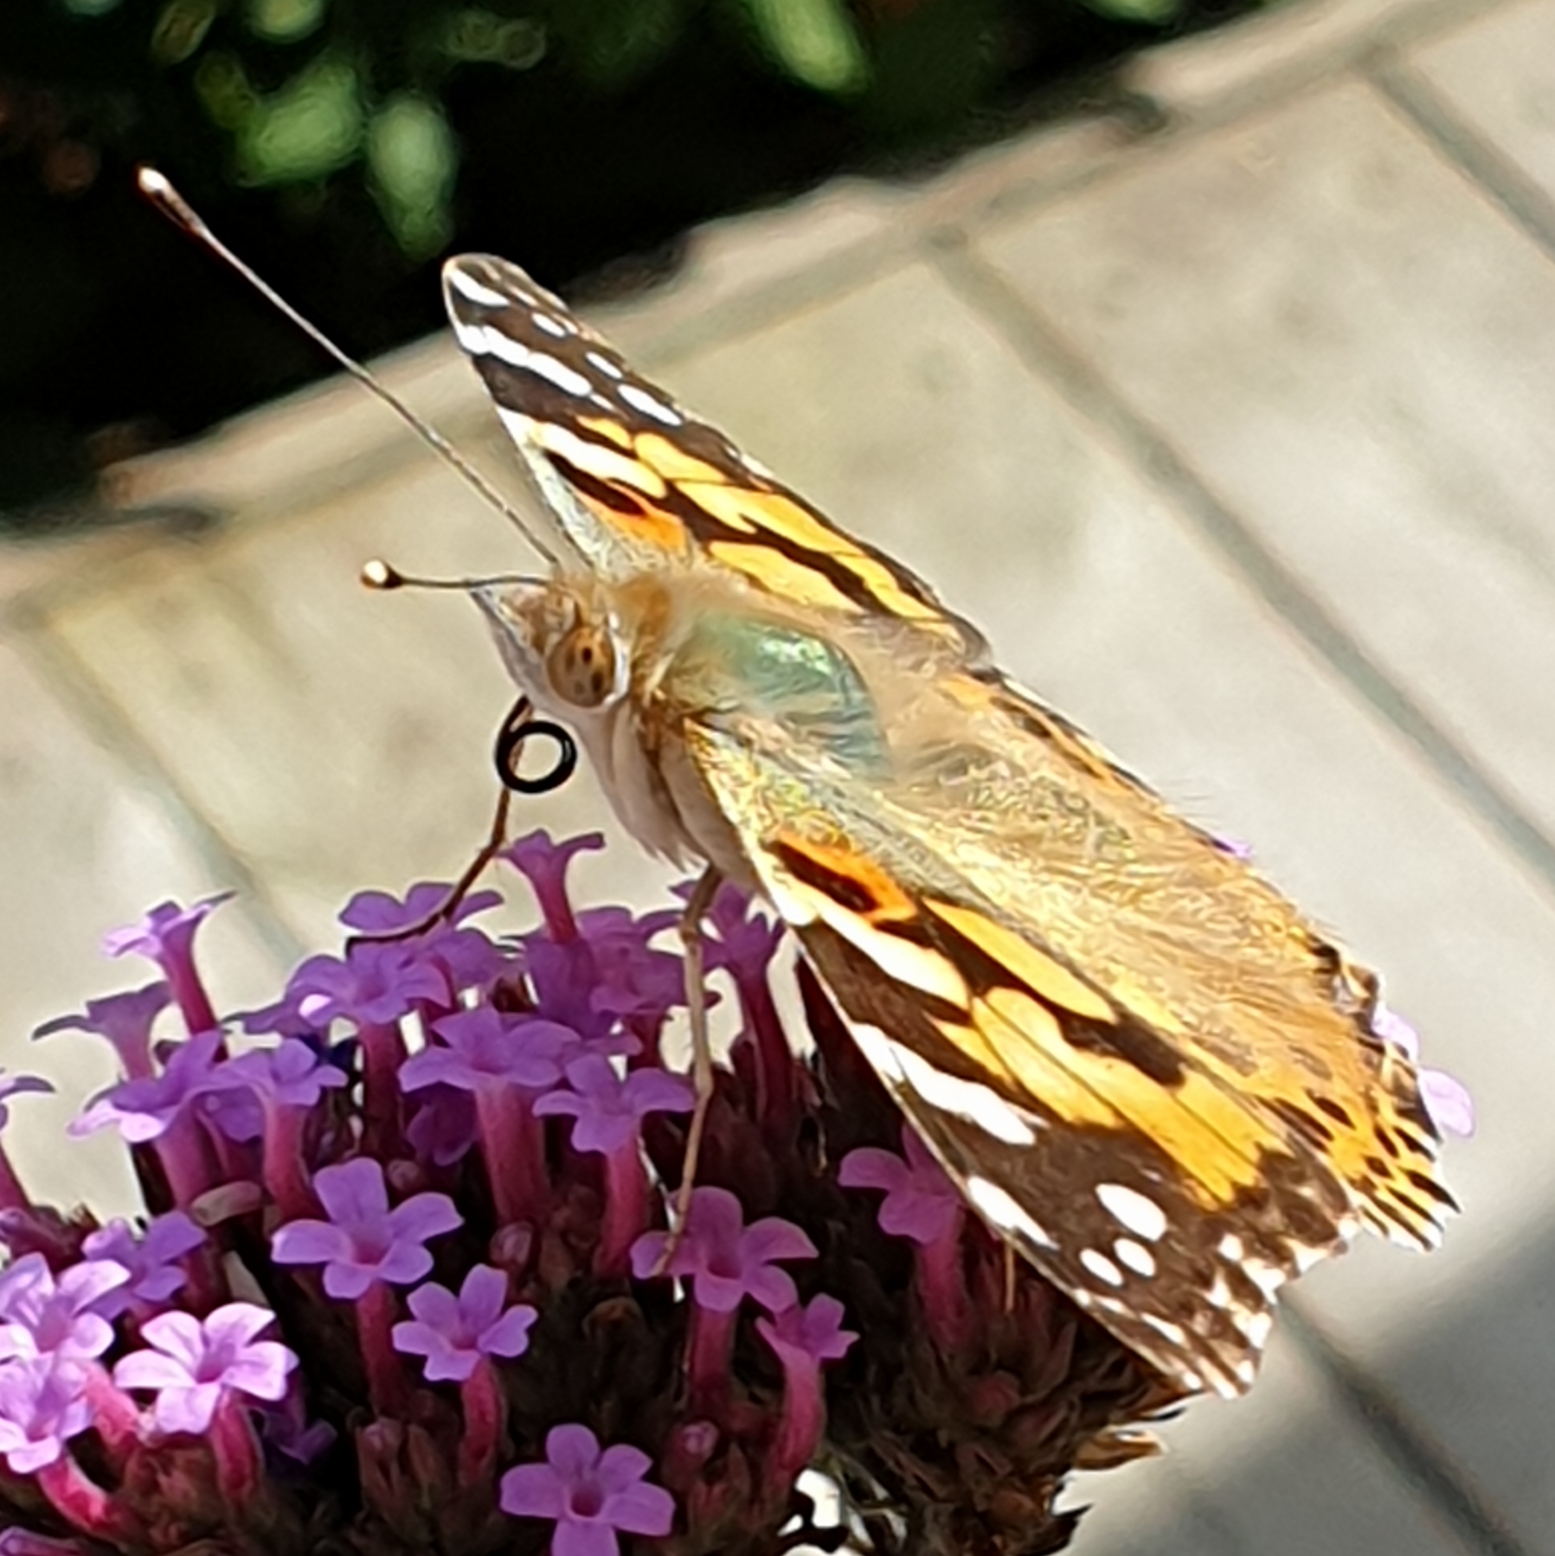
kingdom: Animalia
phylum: Arthropoda
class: Insecta
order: Lepidoptera
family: Nymphalidae
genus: Vanessa
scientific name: Vanessa cardui
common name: Painted lady
